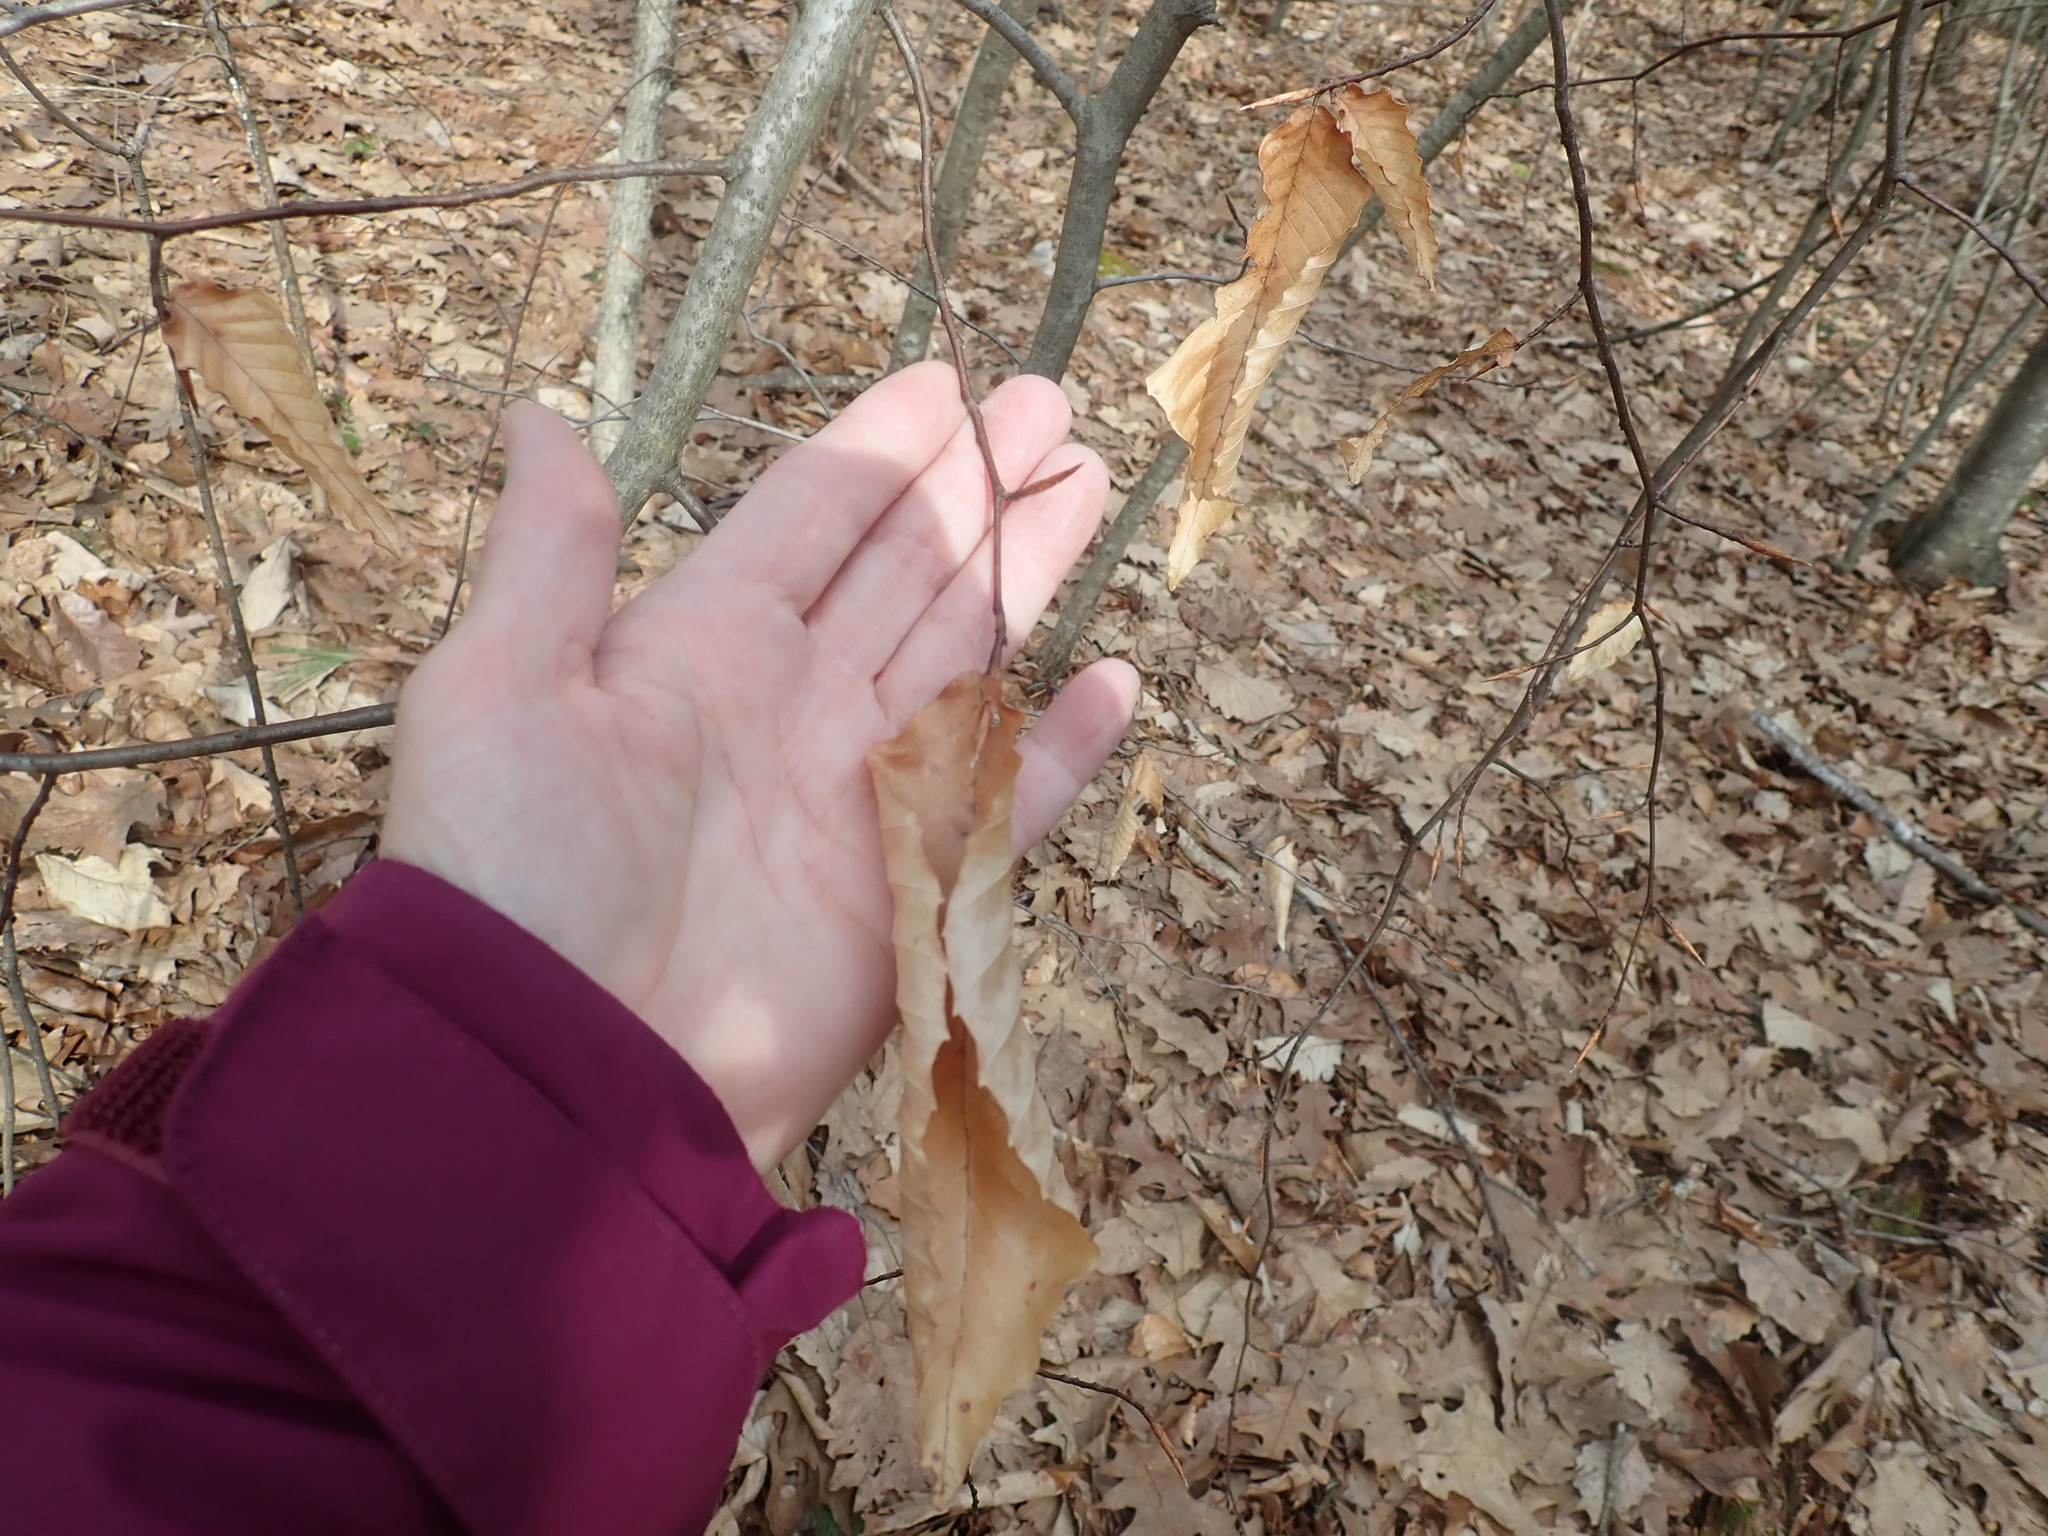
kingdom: Plantae
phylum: Tracheophyta
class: Magnoliopsida
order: Fagales
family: Fagaceae
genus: Fagus
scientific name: Fagus grandifolia
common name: American beech
